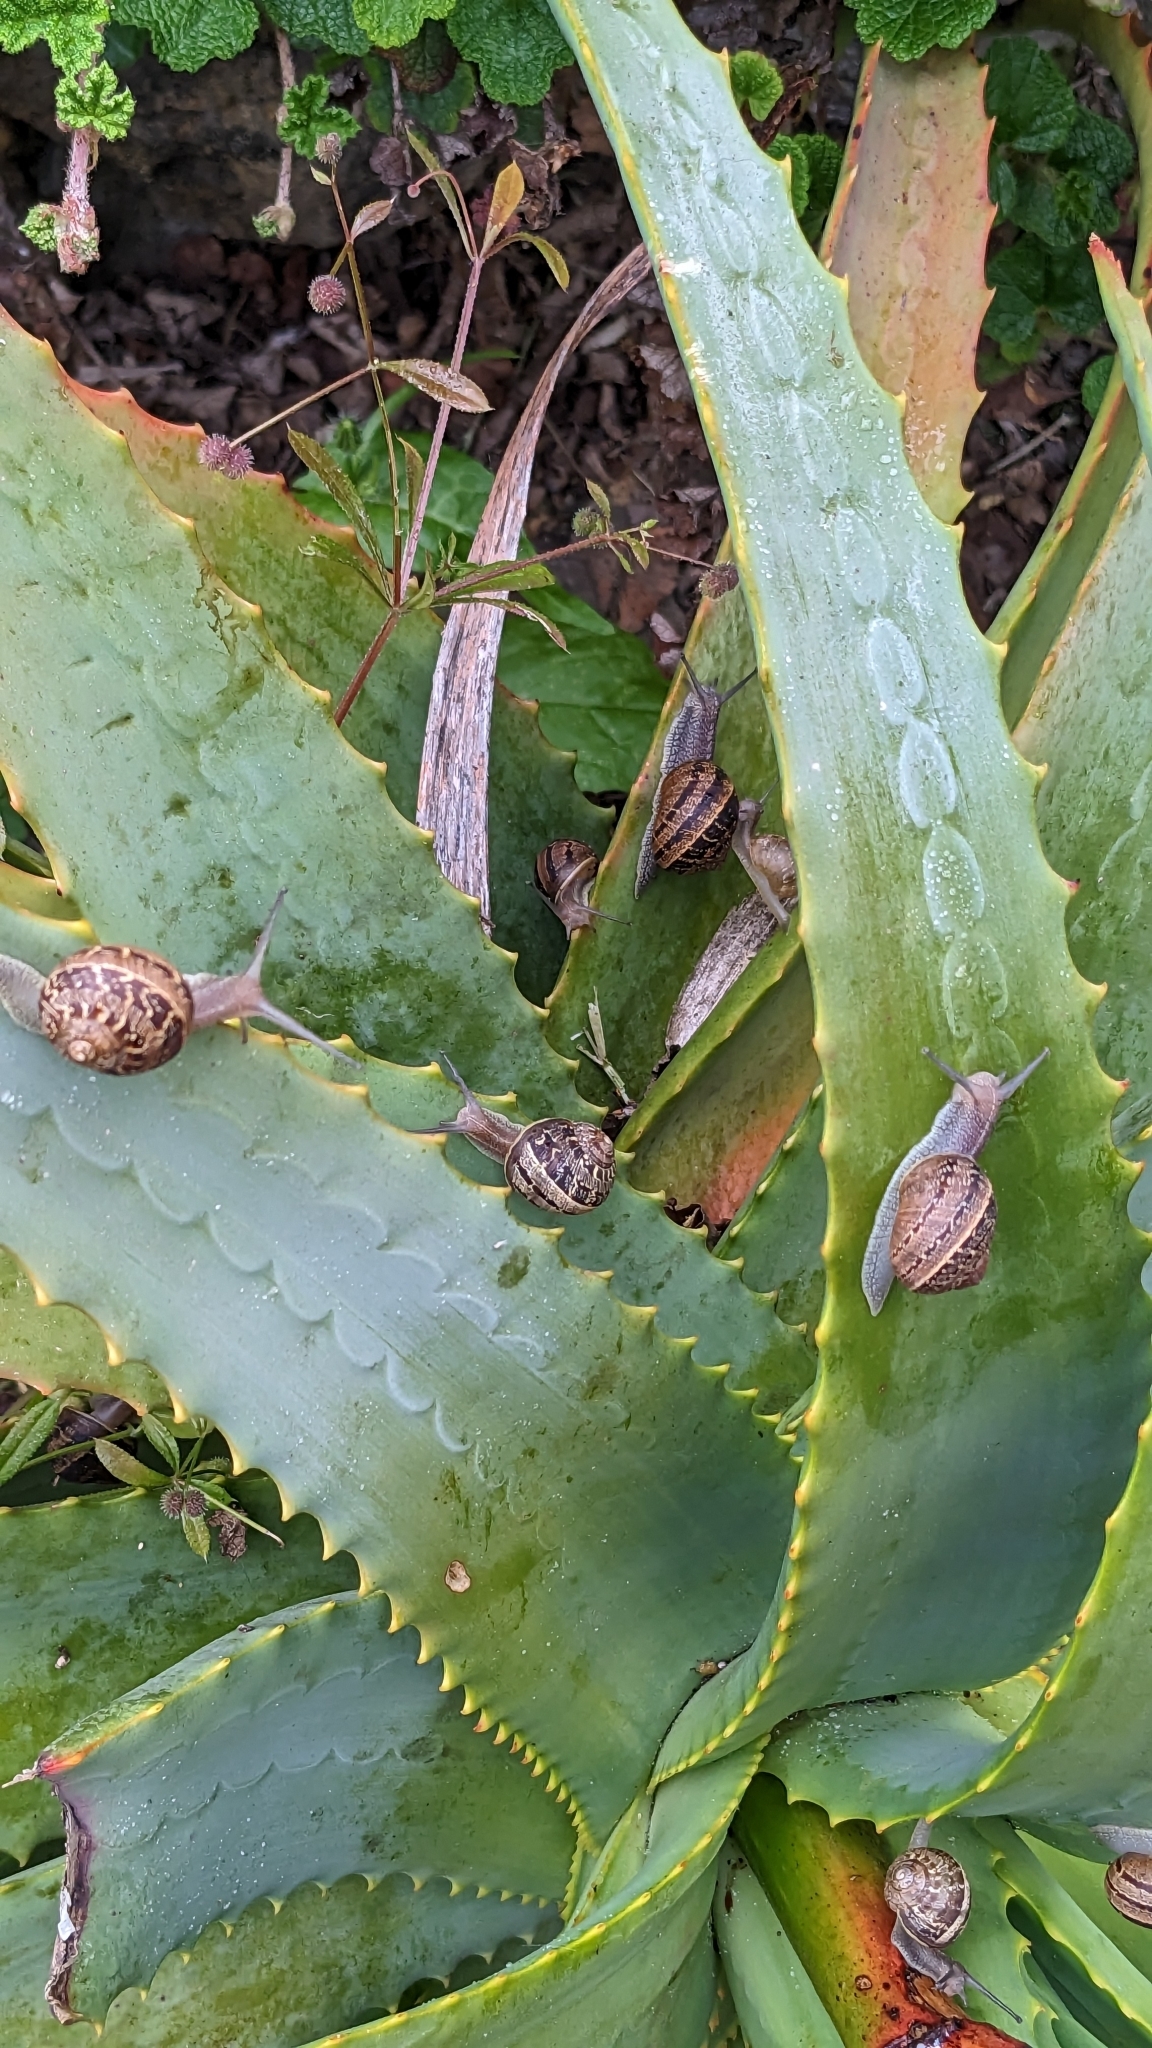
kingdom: Animalia
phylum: Mollusca
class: Gastropoda
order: Stylommatophora
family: Helicidae
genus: Cornu
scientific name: Cornu aspersum
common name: Brown garden snail
